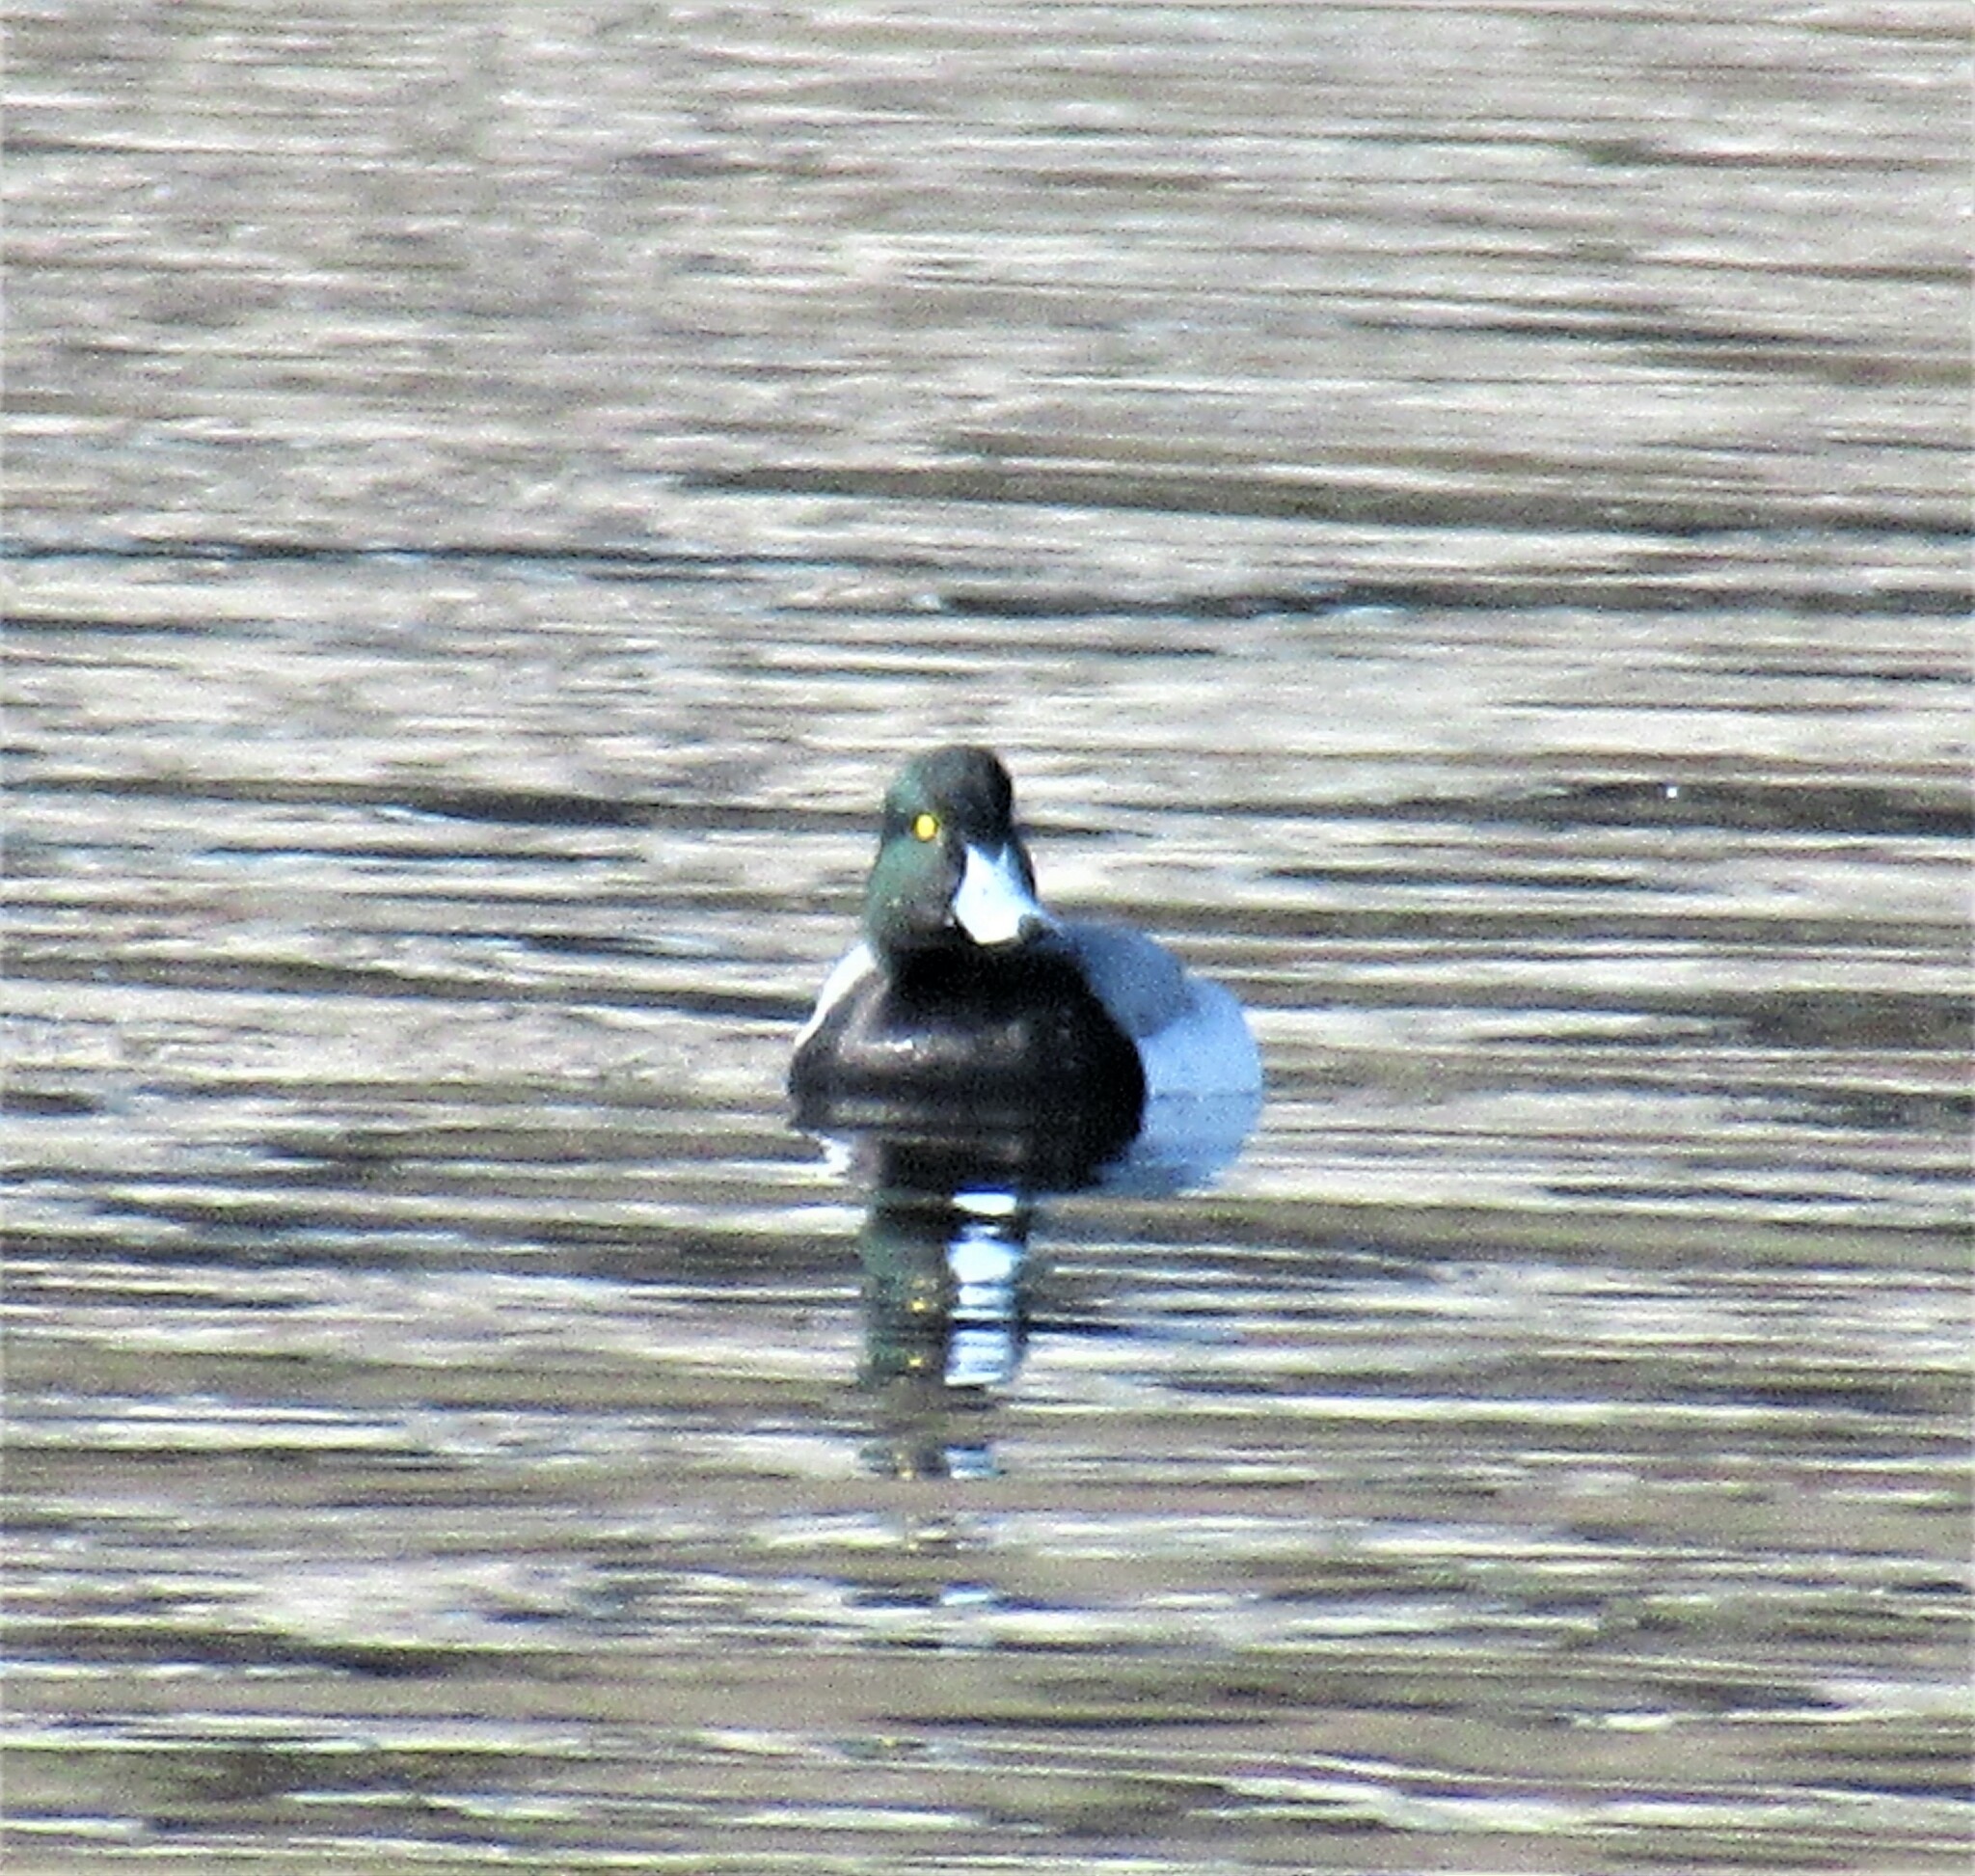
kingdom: Animalia
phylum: Chordata
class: Aves
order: Anseriformes
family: Anatidae
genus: Aythya
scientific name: Aythya marila
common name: Greater scaup
